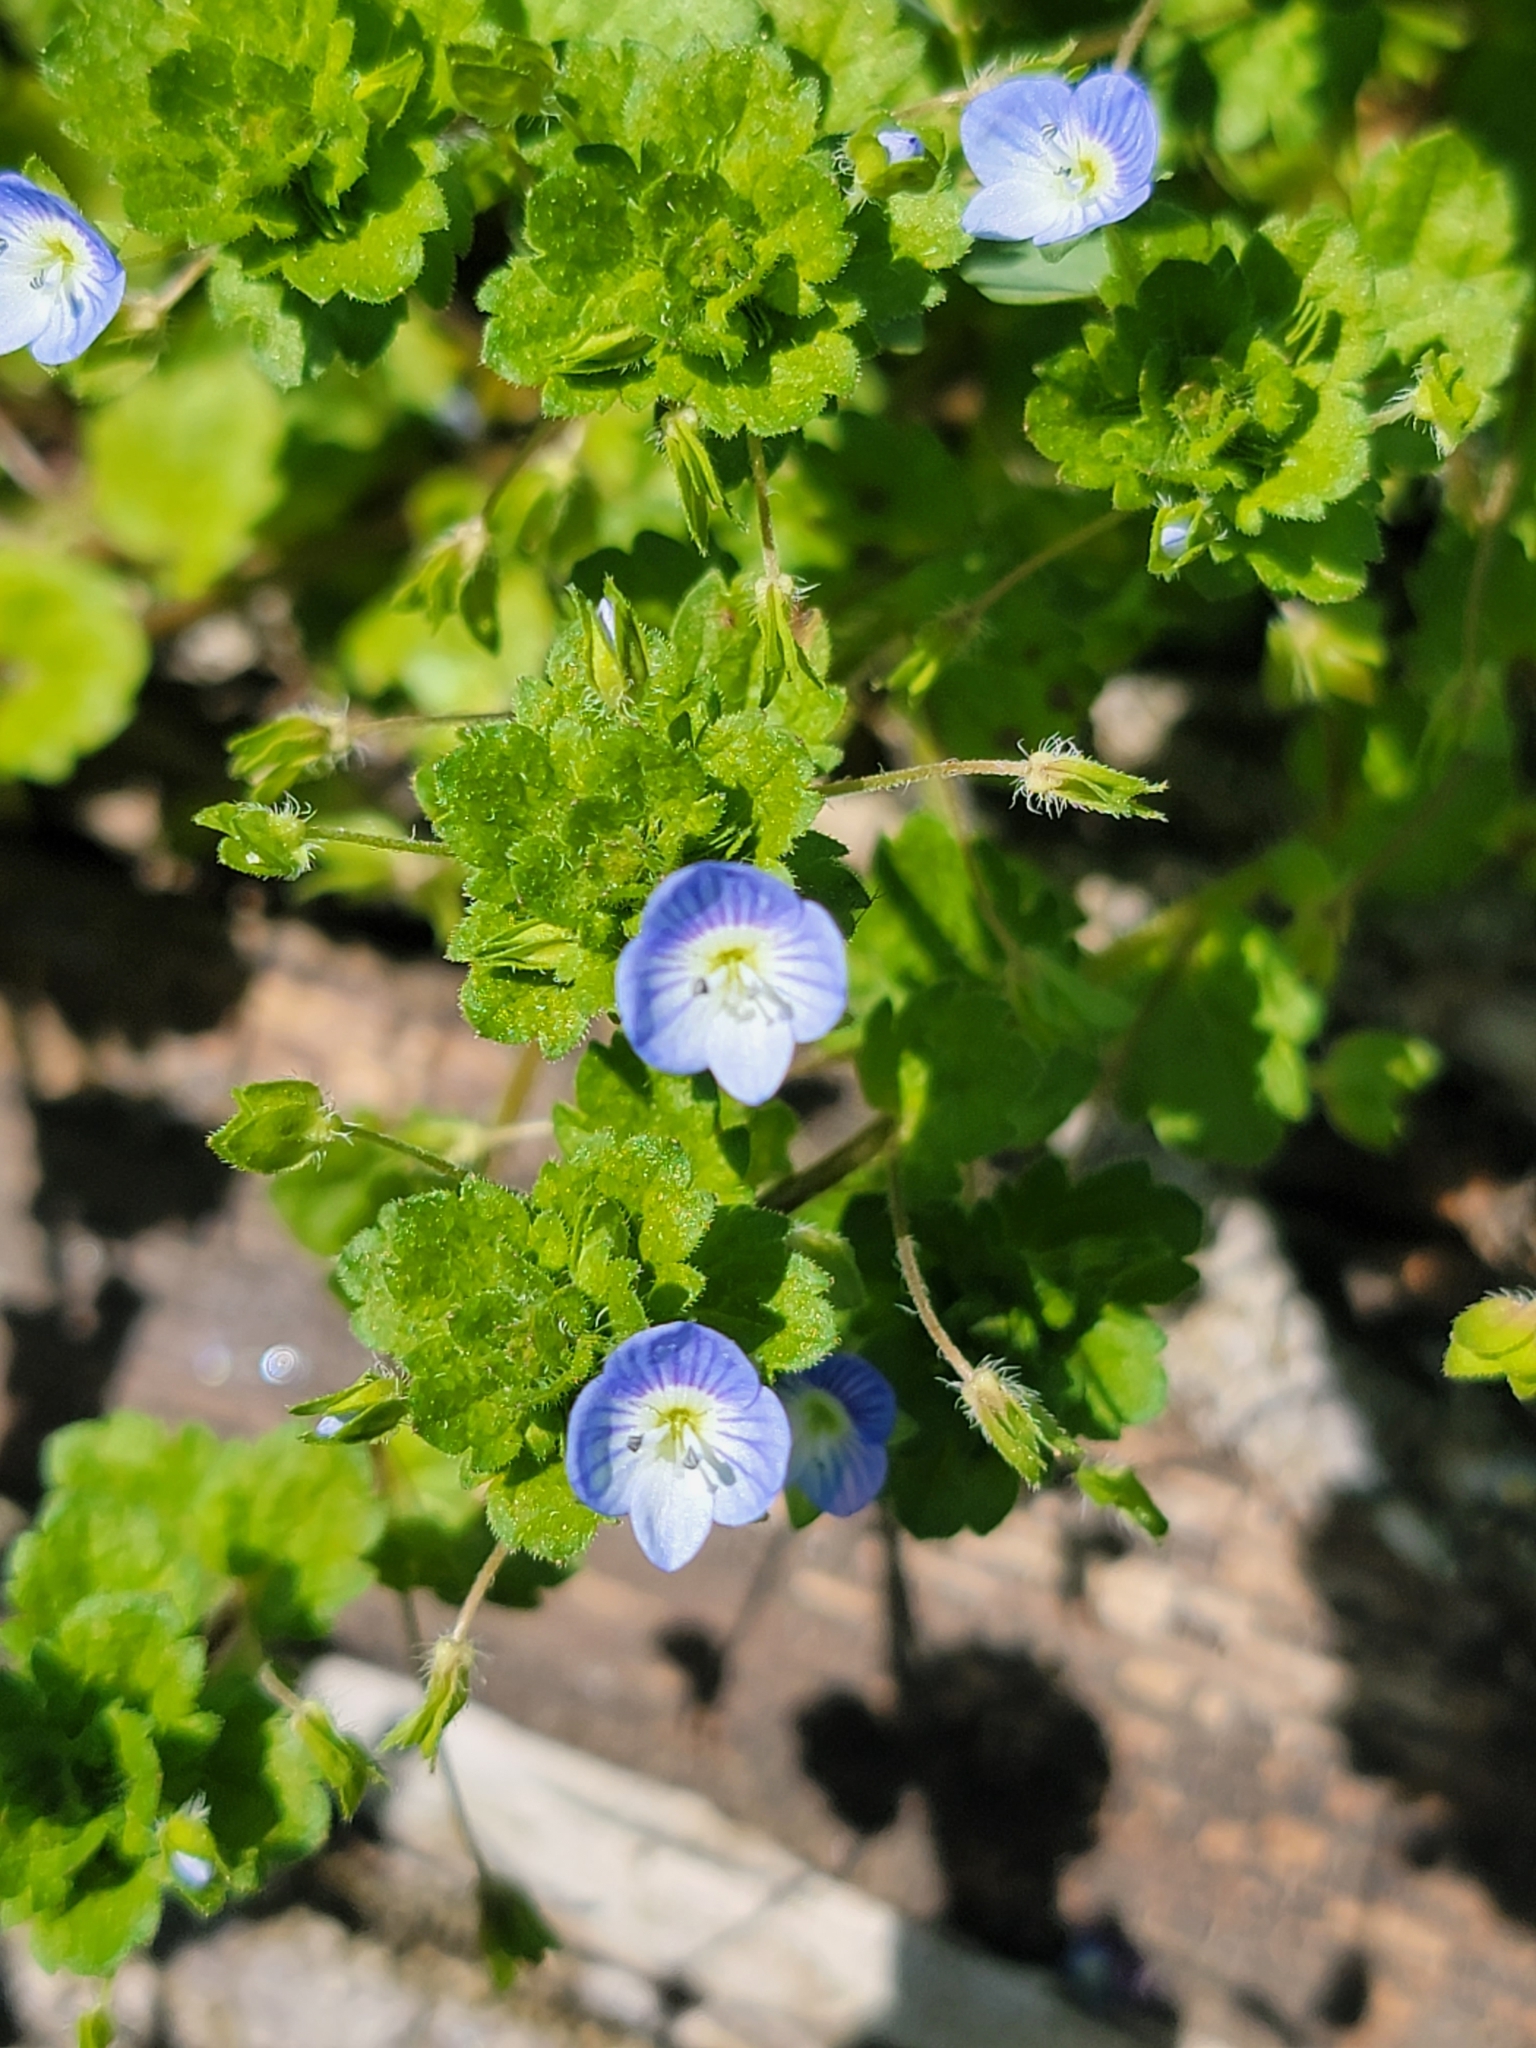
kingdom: Plantae
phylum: Tracheophyta
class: Magnoliopsida
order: Lamiales
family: Plantaginaceae
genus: Veronica
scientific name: Veronica persica
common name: Common field-speedwell
